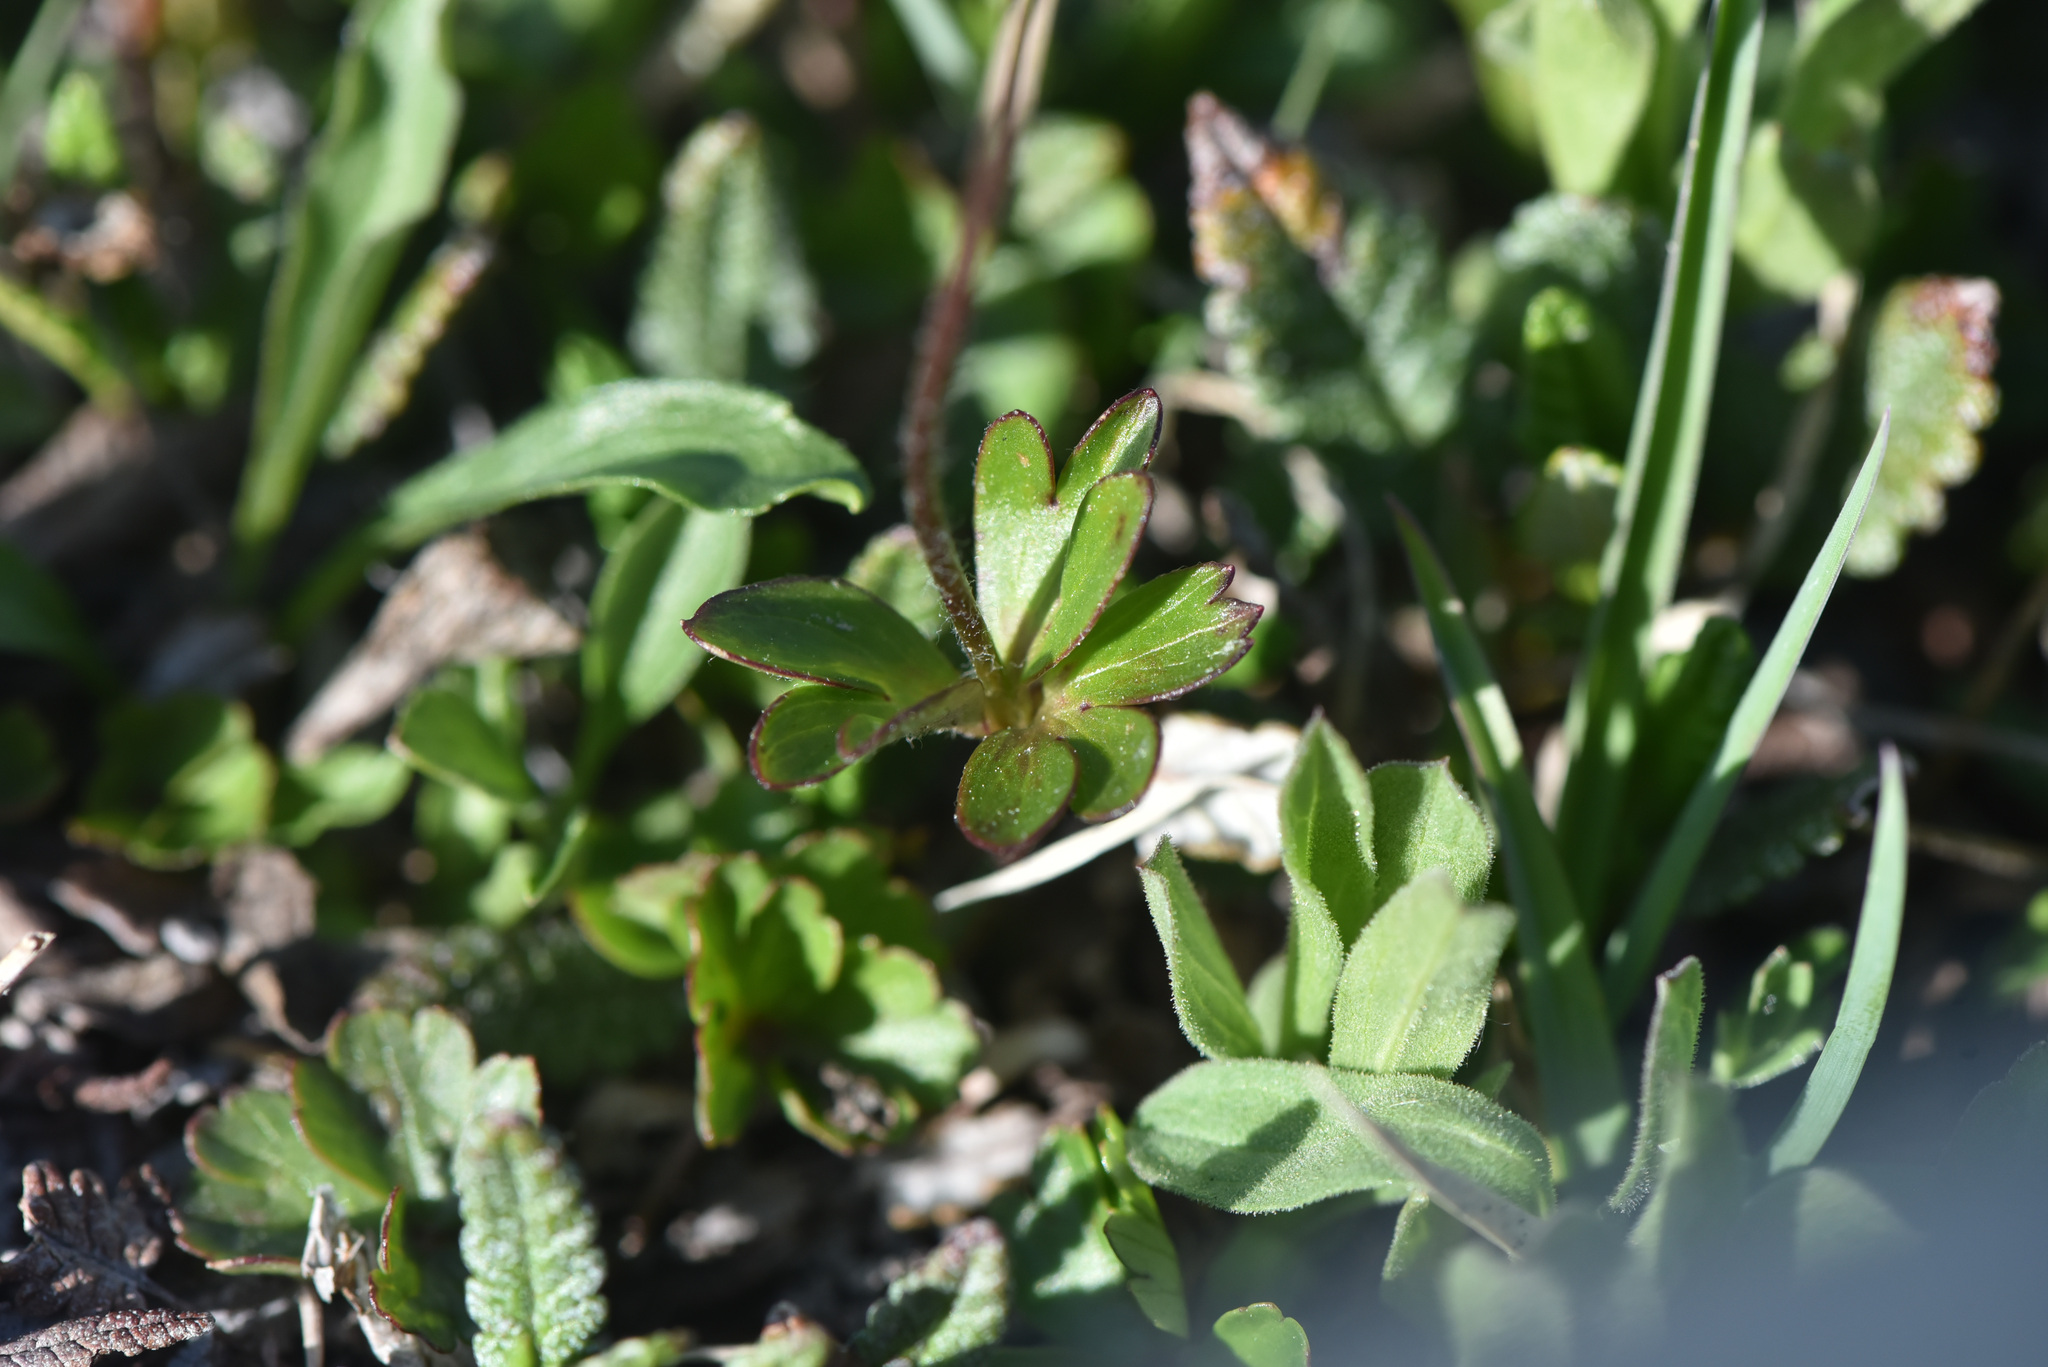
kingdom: Plantae
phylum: Tracheophyta
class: Magnoliopsida
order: Ranunculales
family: Ranunculaceae
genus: Anemone
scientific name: Anemone parviflora
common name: Northern anemone
